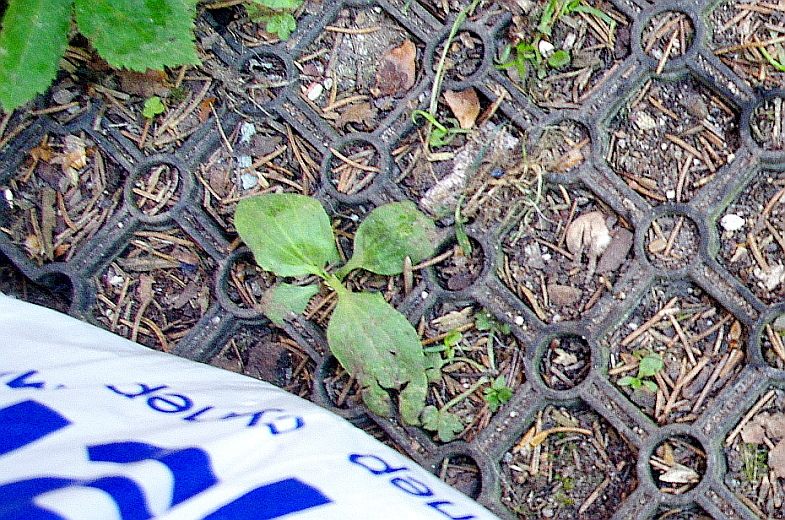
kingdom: Plantae
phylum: Tracheophyta
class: Magnoliopsida
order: Lamiales
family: Plantaginaceae
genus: Plantago
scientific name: Plantago major
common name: Common plantain
